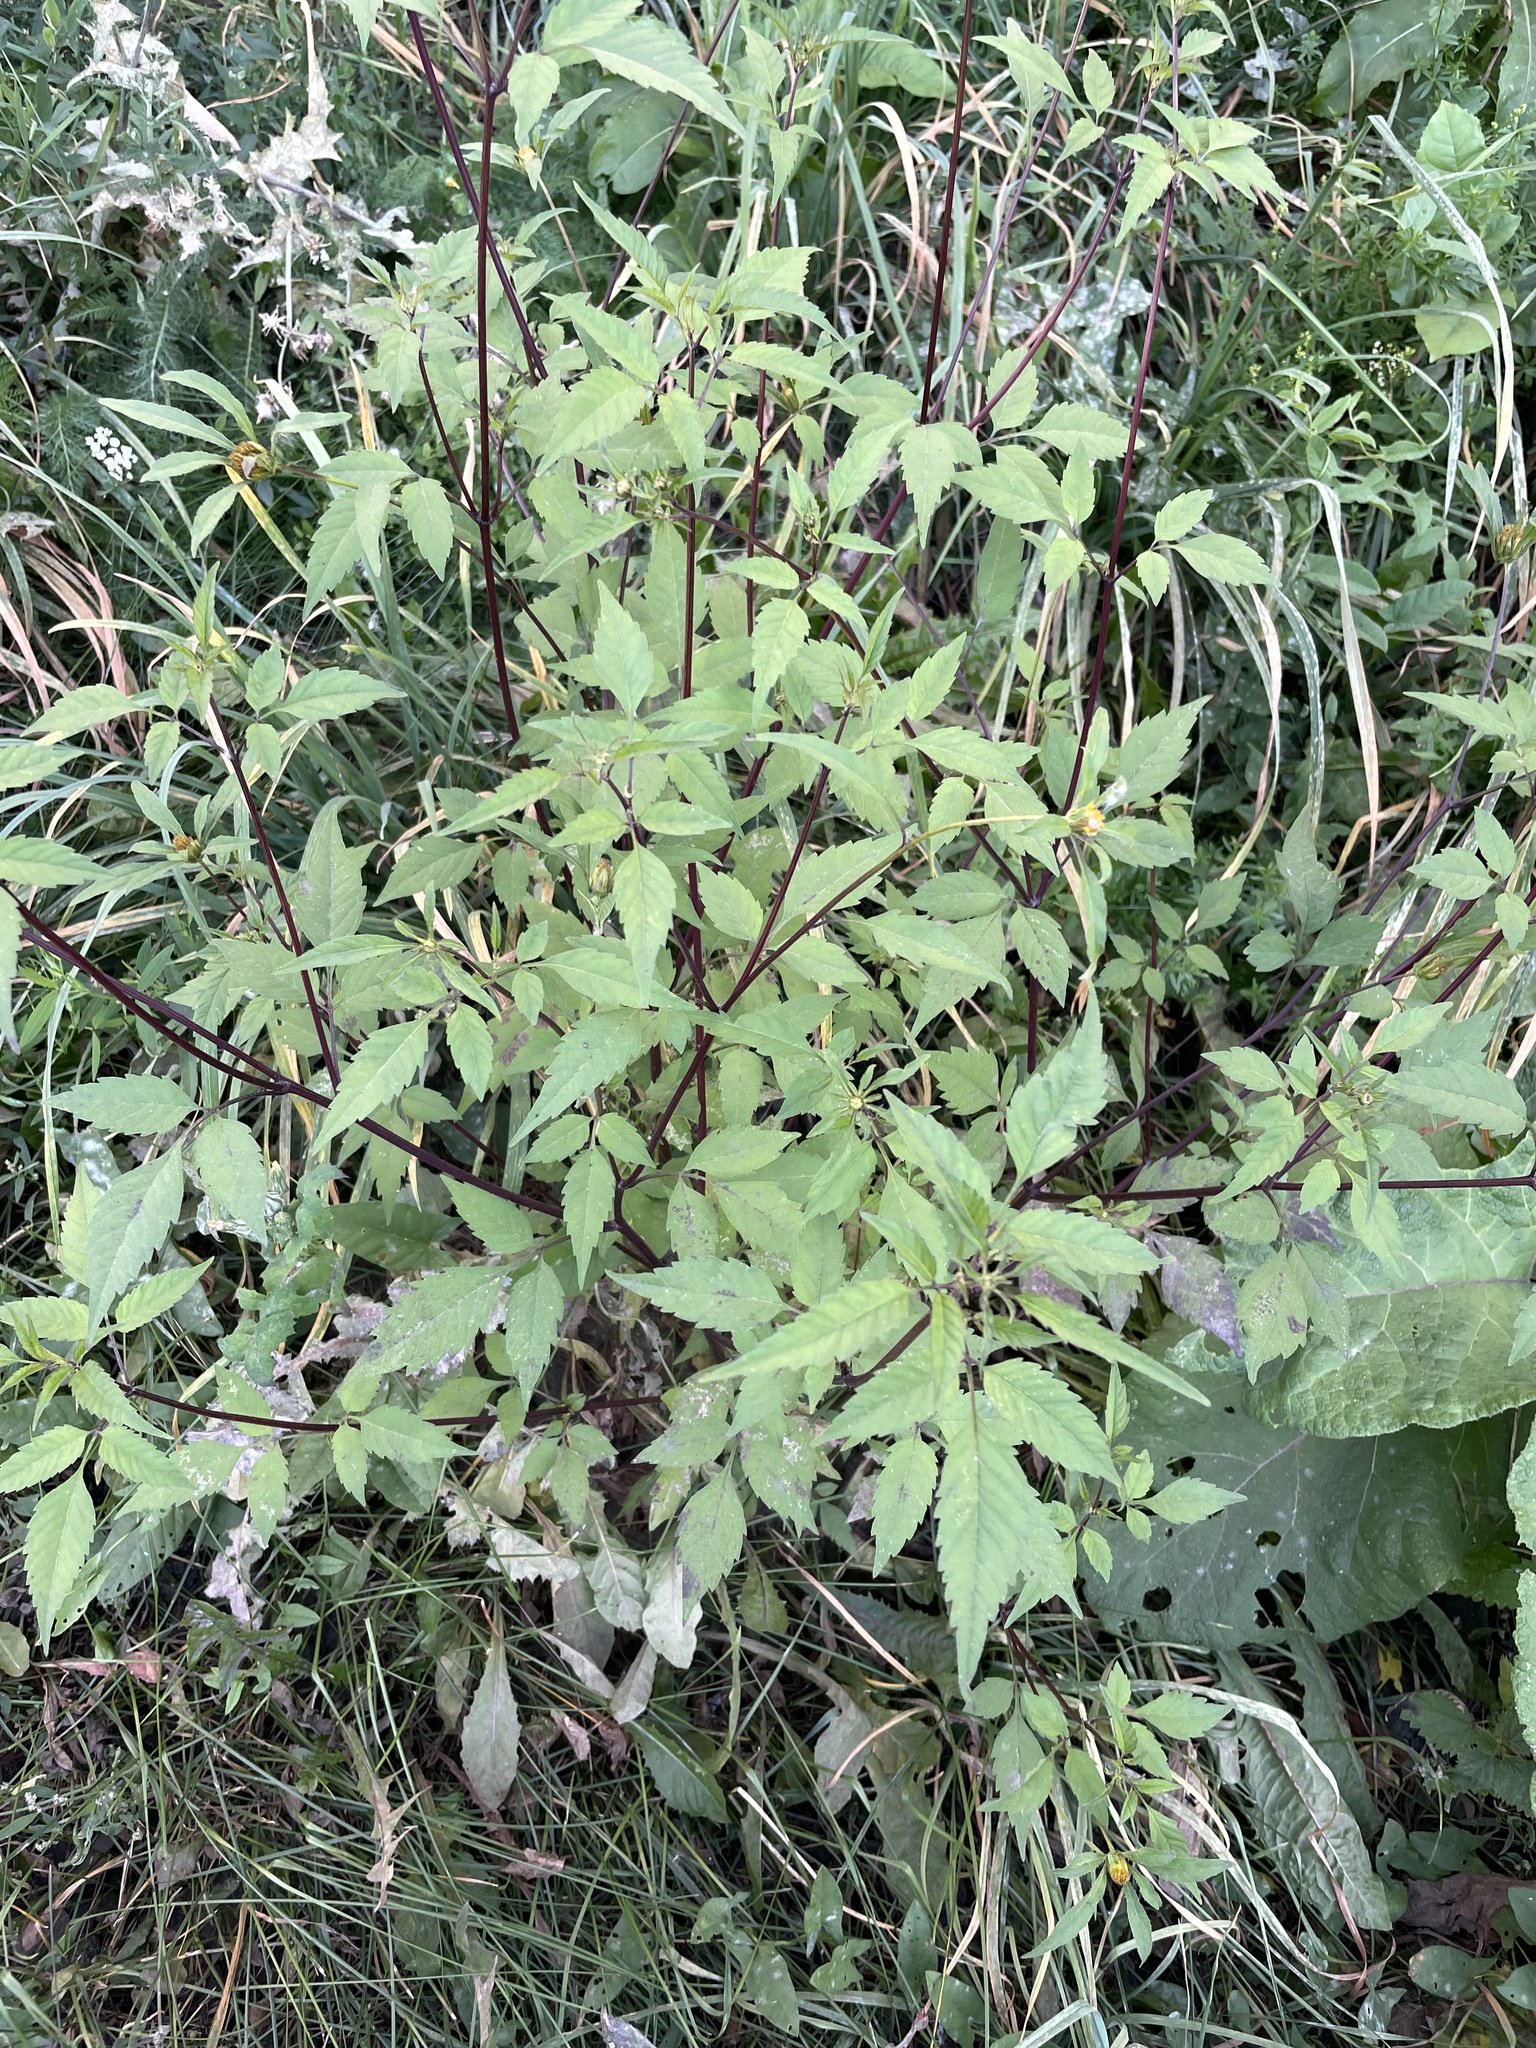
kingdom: Plantae
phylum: Tracheophyta
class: Magnoliopsida
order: Asterales
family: Asteraceae
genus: Bidens
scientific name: Bidens frondosa
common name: Beggarticks
